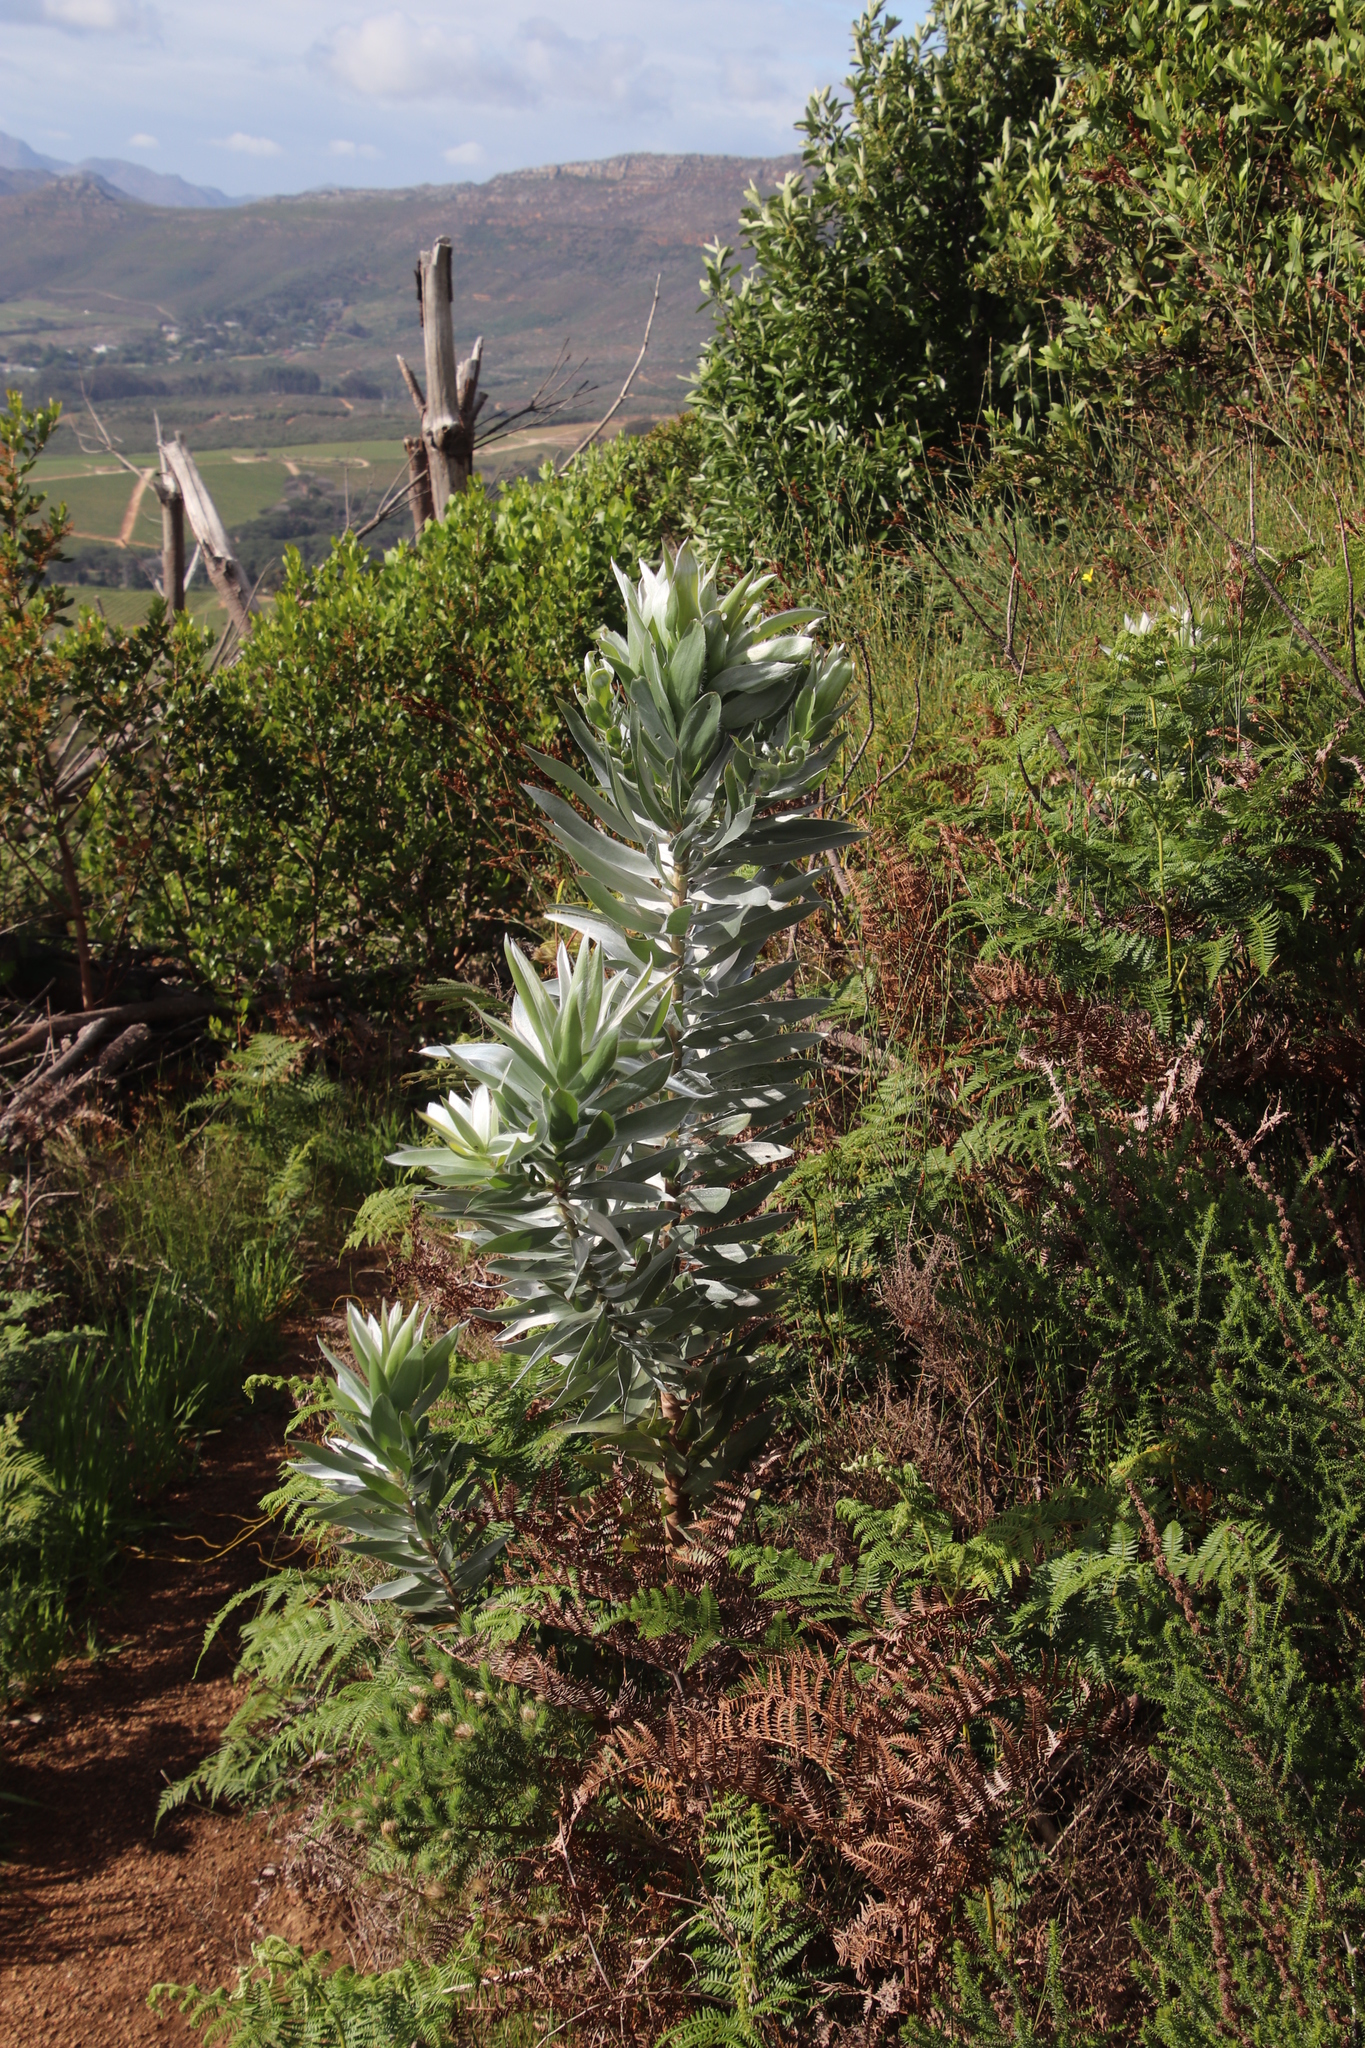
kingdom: Plantae
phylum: Tracheophyta
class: Magnoliopsida
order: Proteales
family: Proteaceae
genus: Leucadendron
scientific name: Leucadendron argenteum
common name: Cape silver tree
